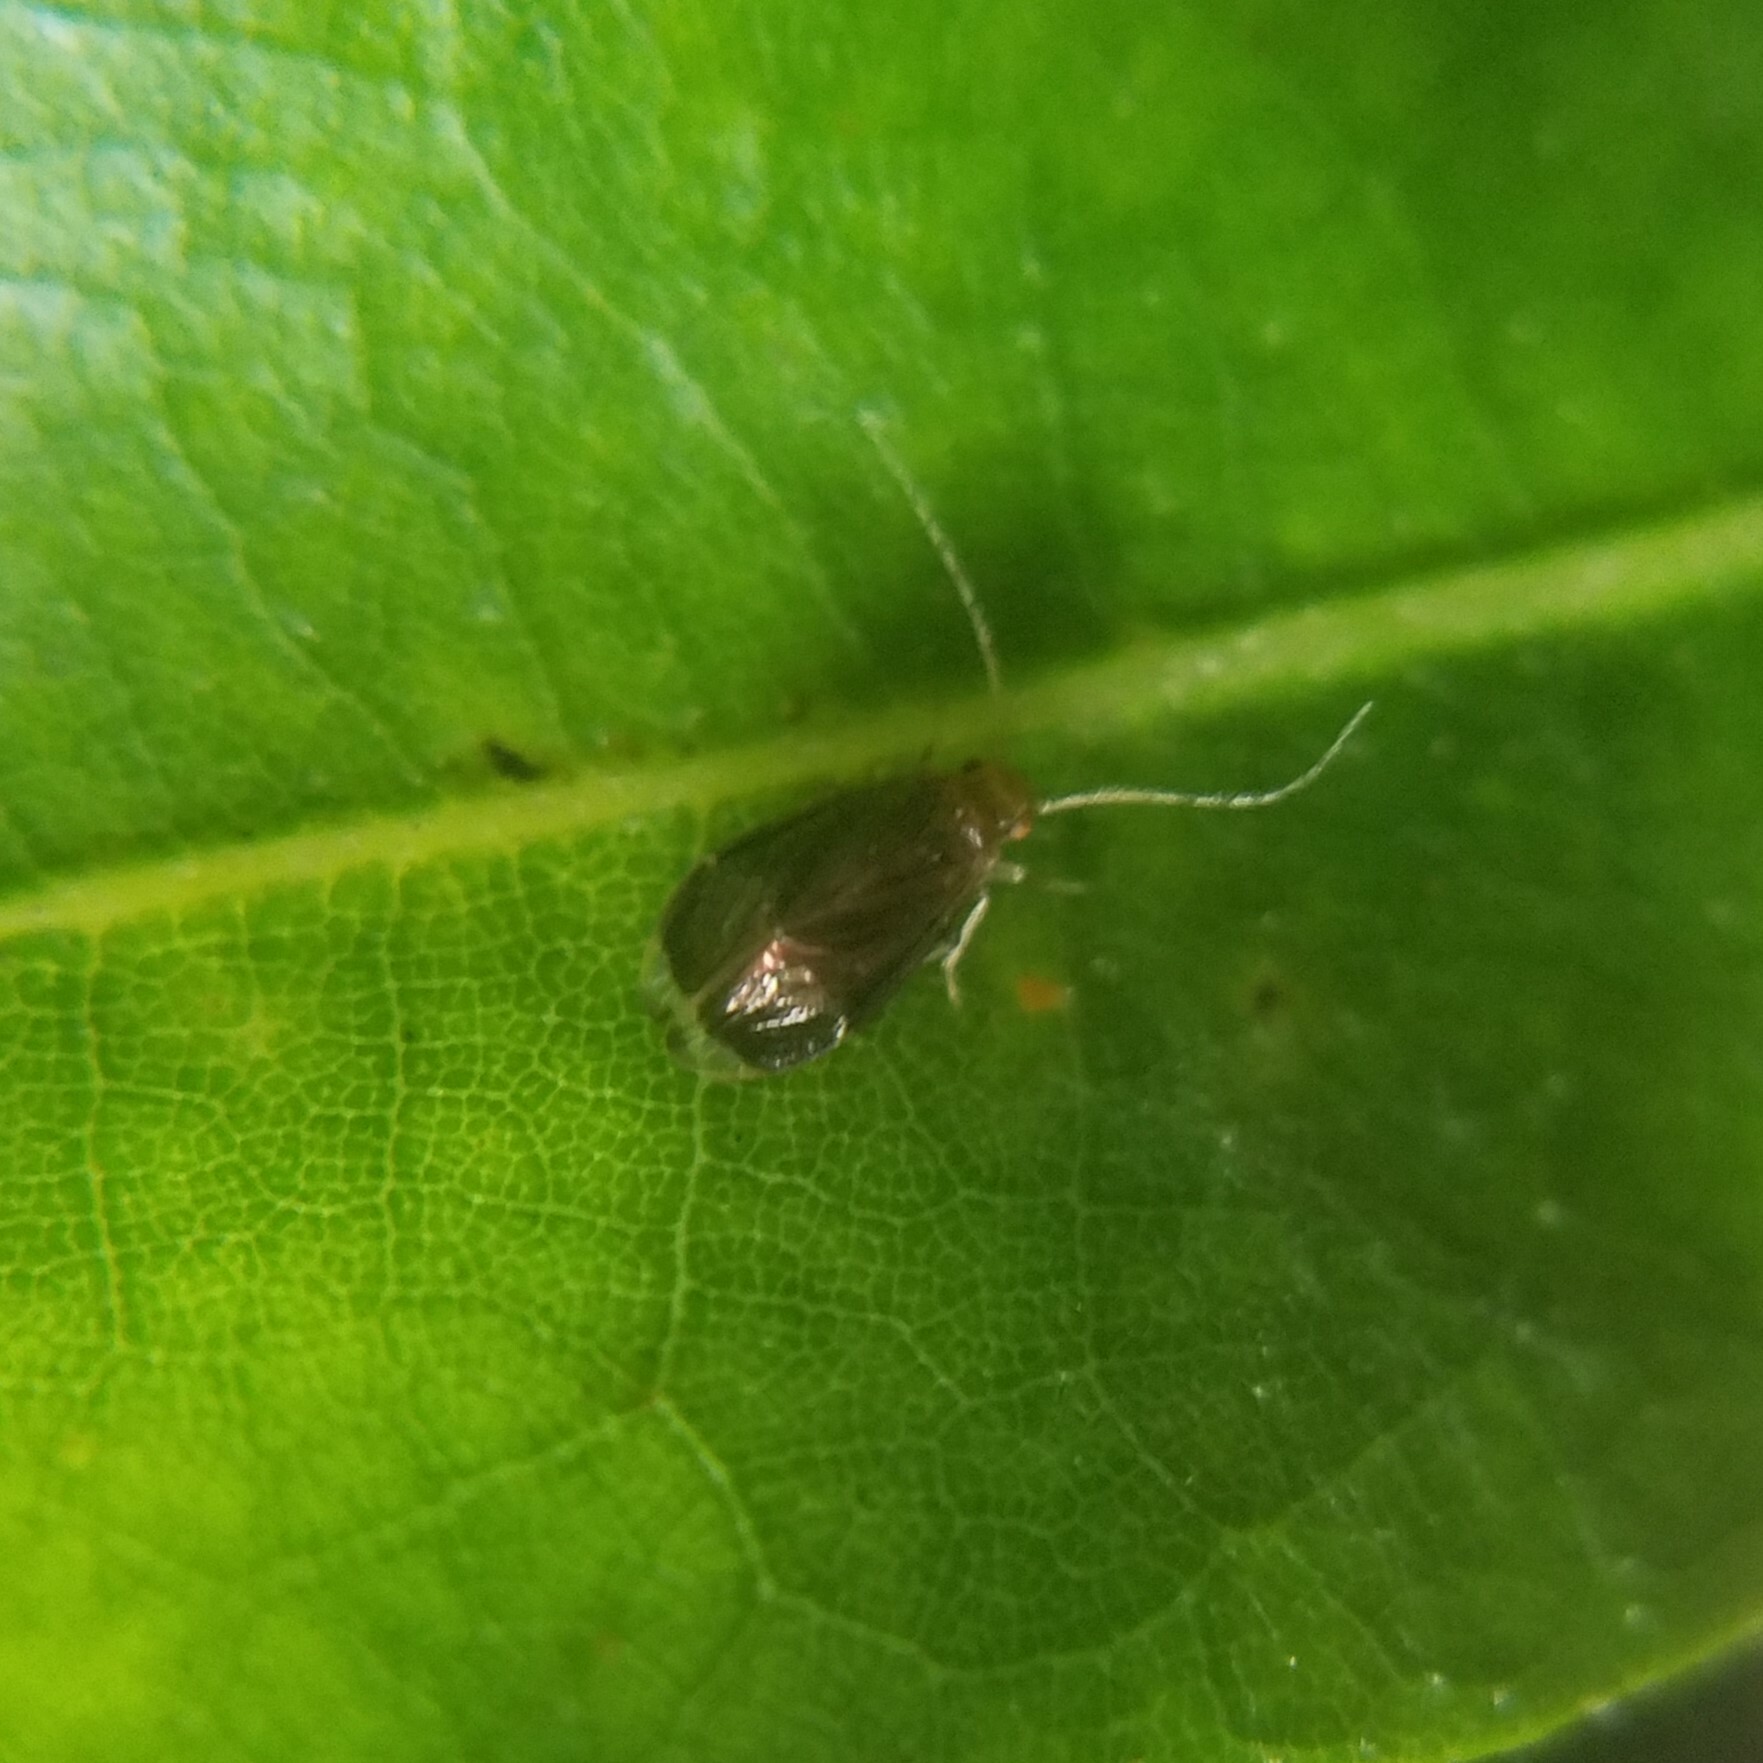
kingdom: Animalia
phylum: Arthropoda
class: Insecta
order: Psocodea
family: Amphipsocidae
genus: Polypsocus
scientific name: Polypsocus corruptus
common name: Corrupt barklouse
